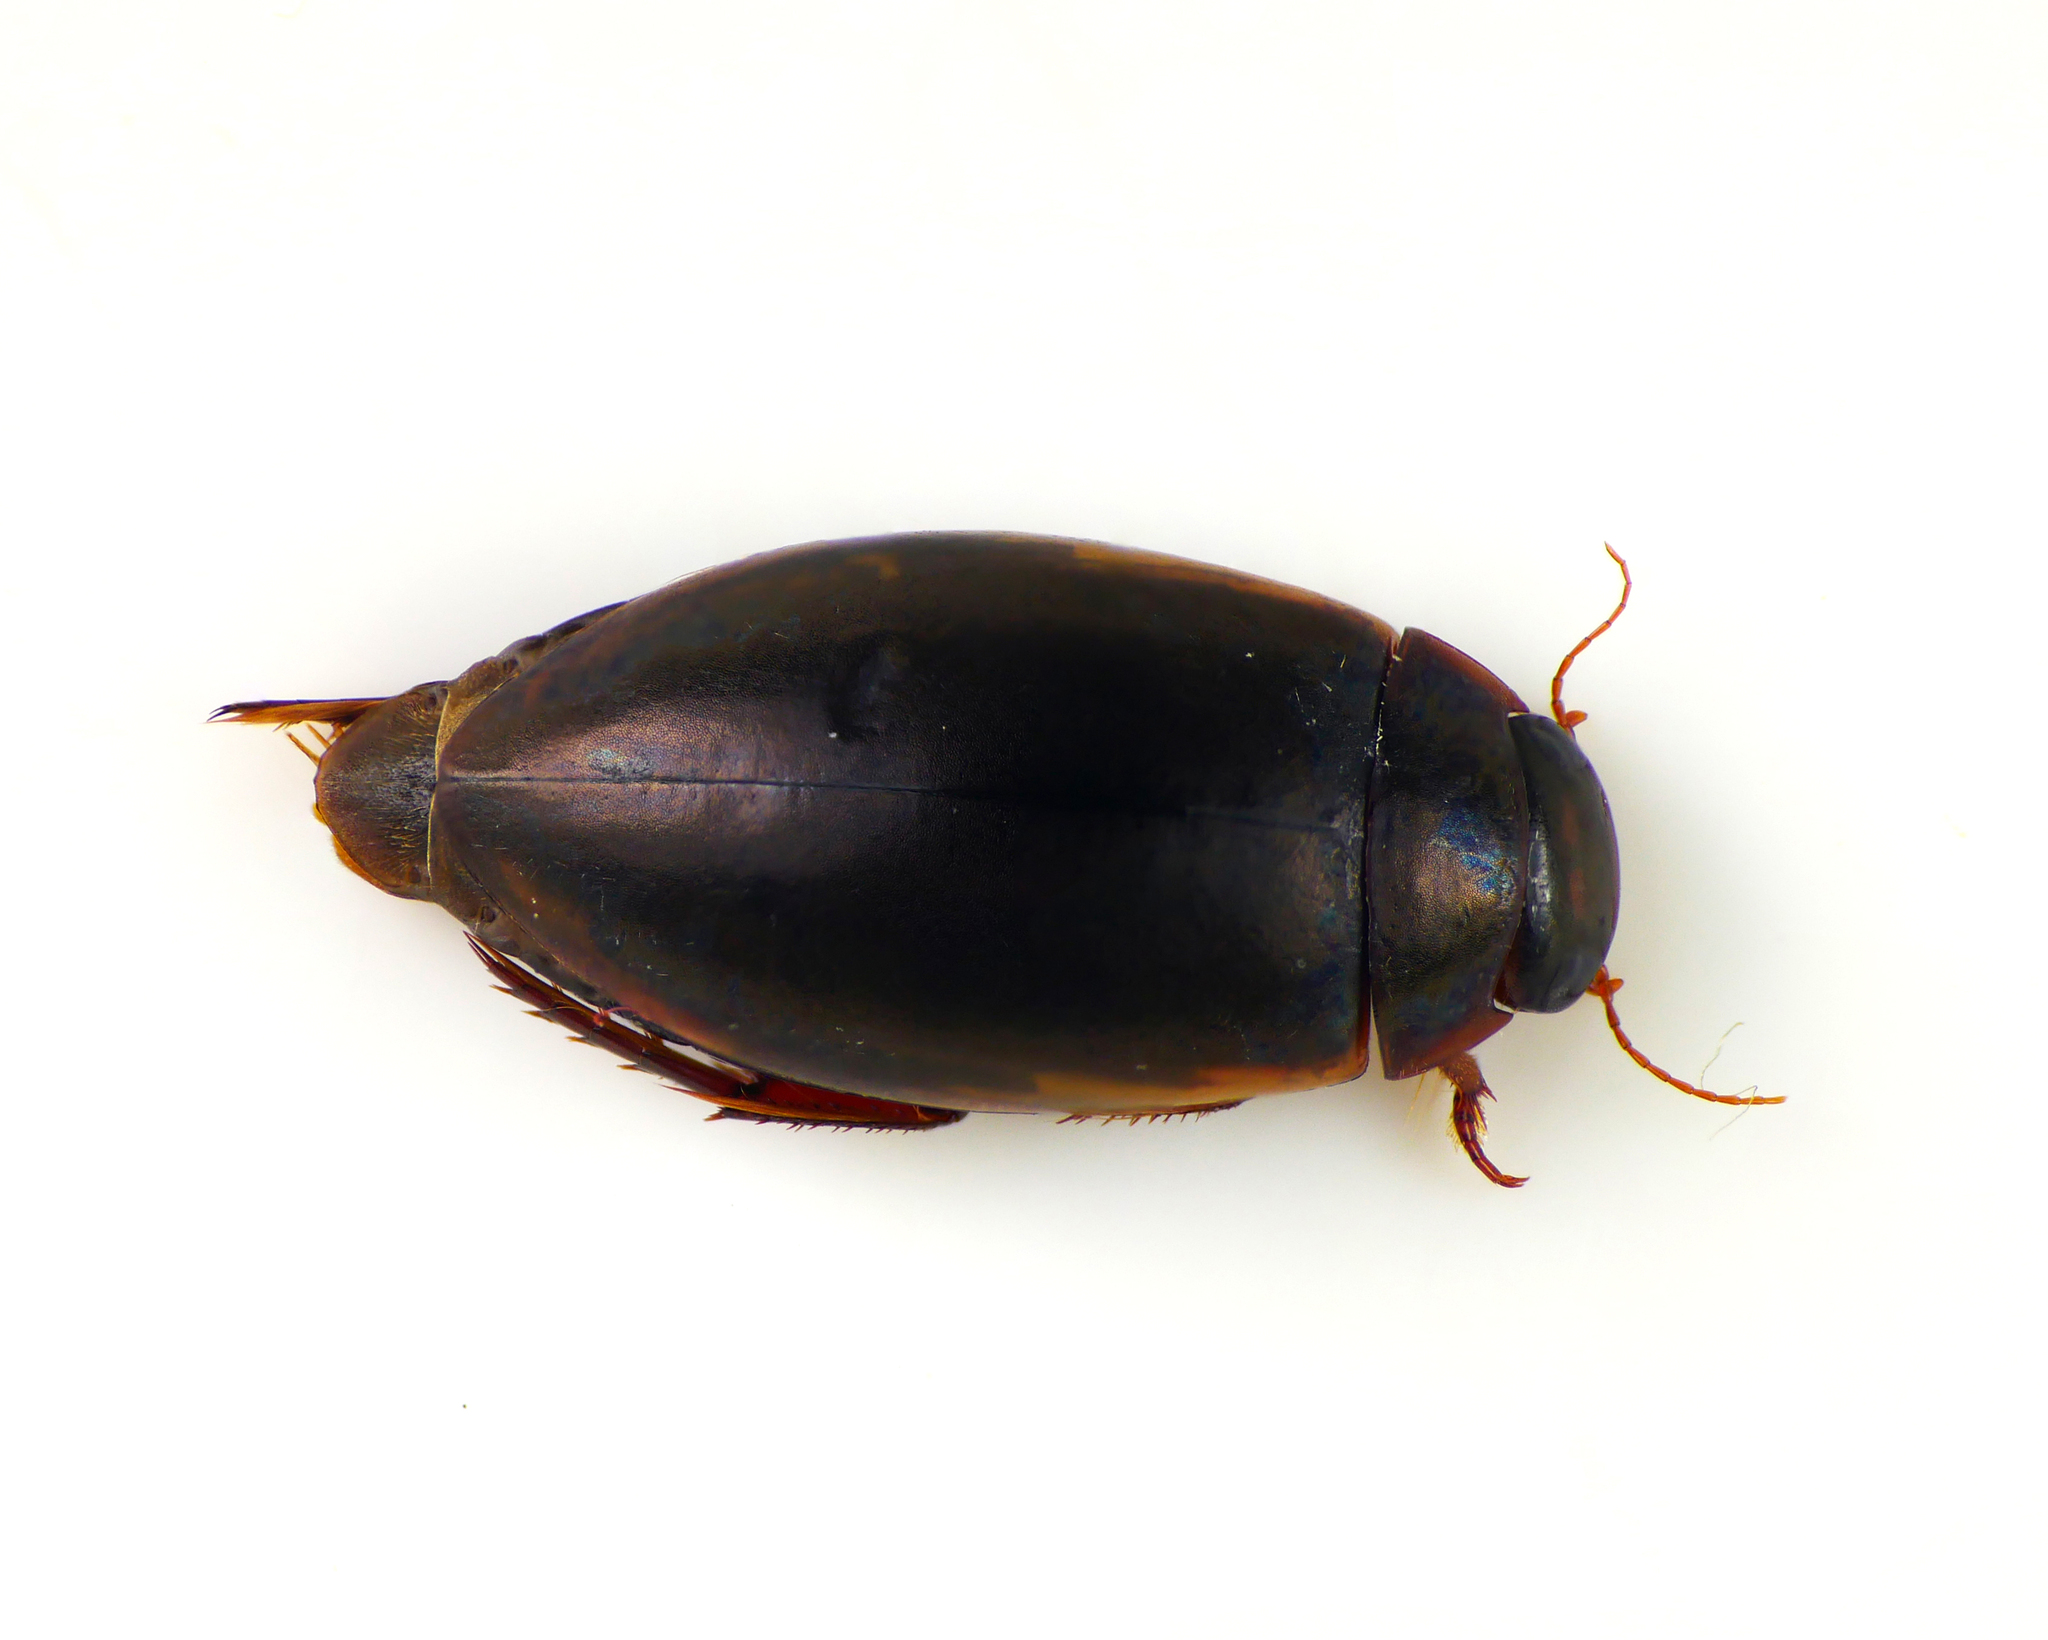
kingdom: Animalia
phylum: Arthropoda
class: Insecta
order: Coleoptera
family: Dytiscidae
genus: Ilybius
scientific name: Ilybius fuliginosus
